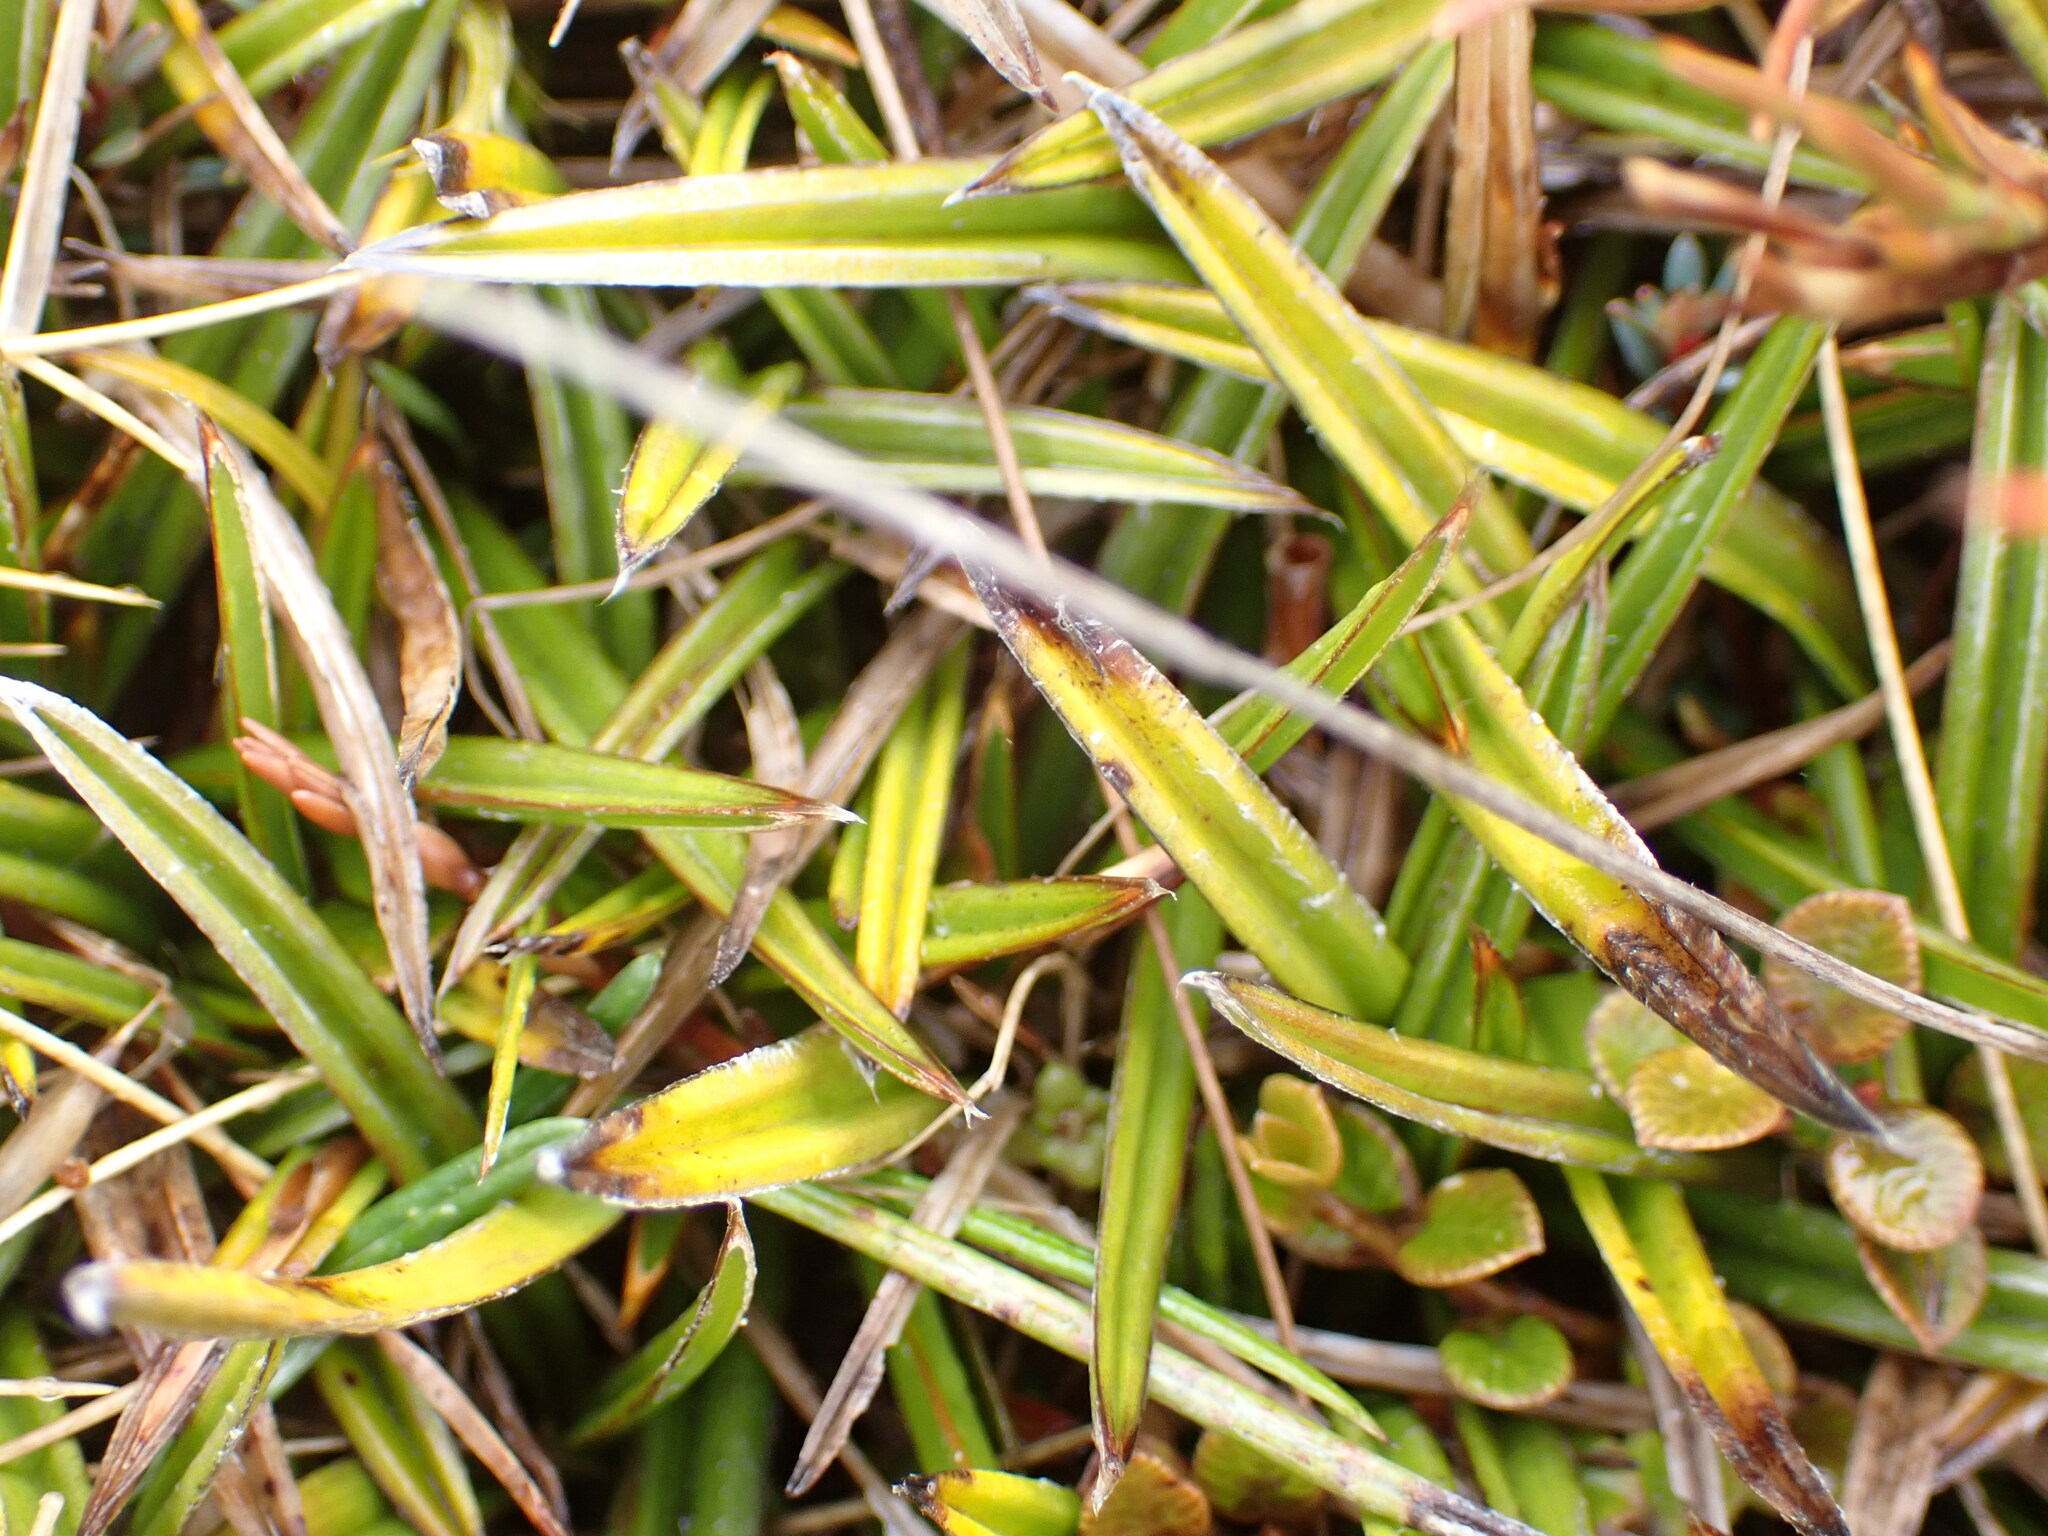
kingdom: Plantae
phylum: Tracheophyta
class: Liliopsida
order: Asparagales
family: Asteliaceae
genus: Astelia
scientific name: Astelia linearis
